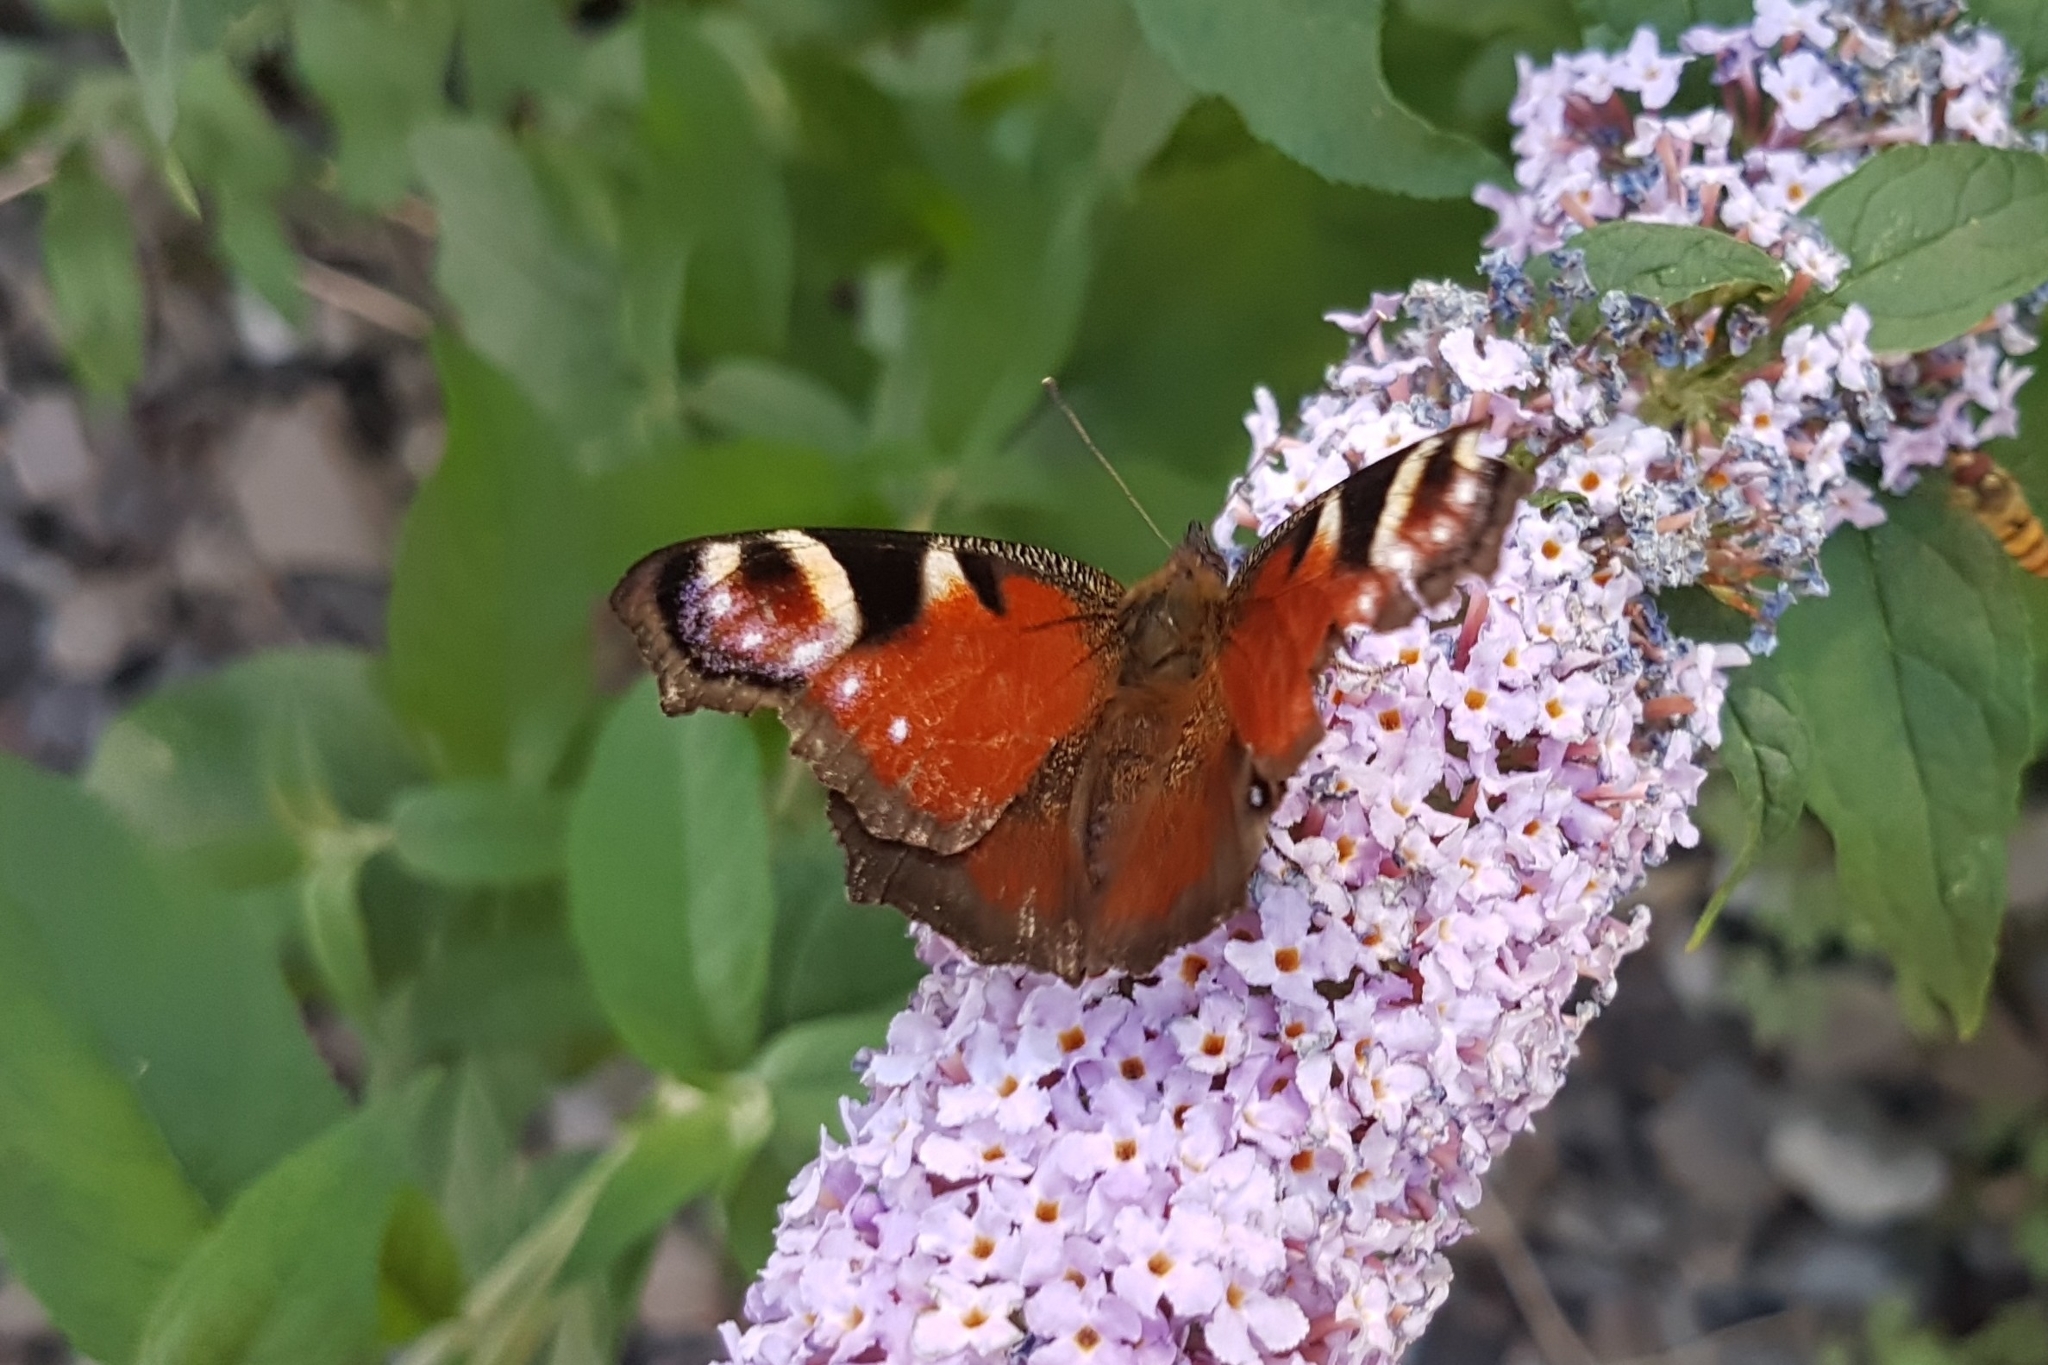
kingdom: Animalia
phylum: Arthropoda
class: Insecta
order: Lepidoptera
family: Nymphalidae
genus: Aglais
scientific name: Aglais io
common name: Peacock
